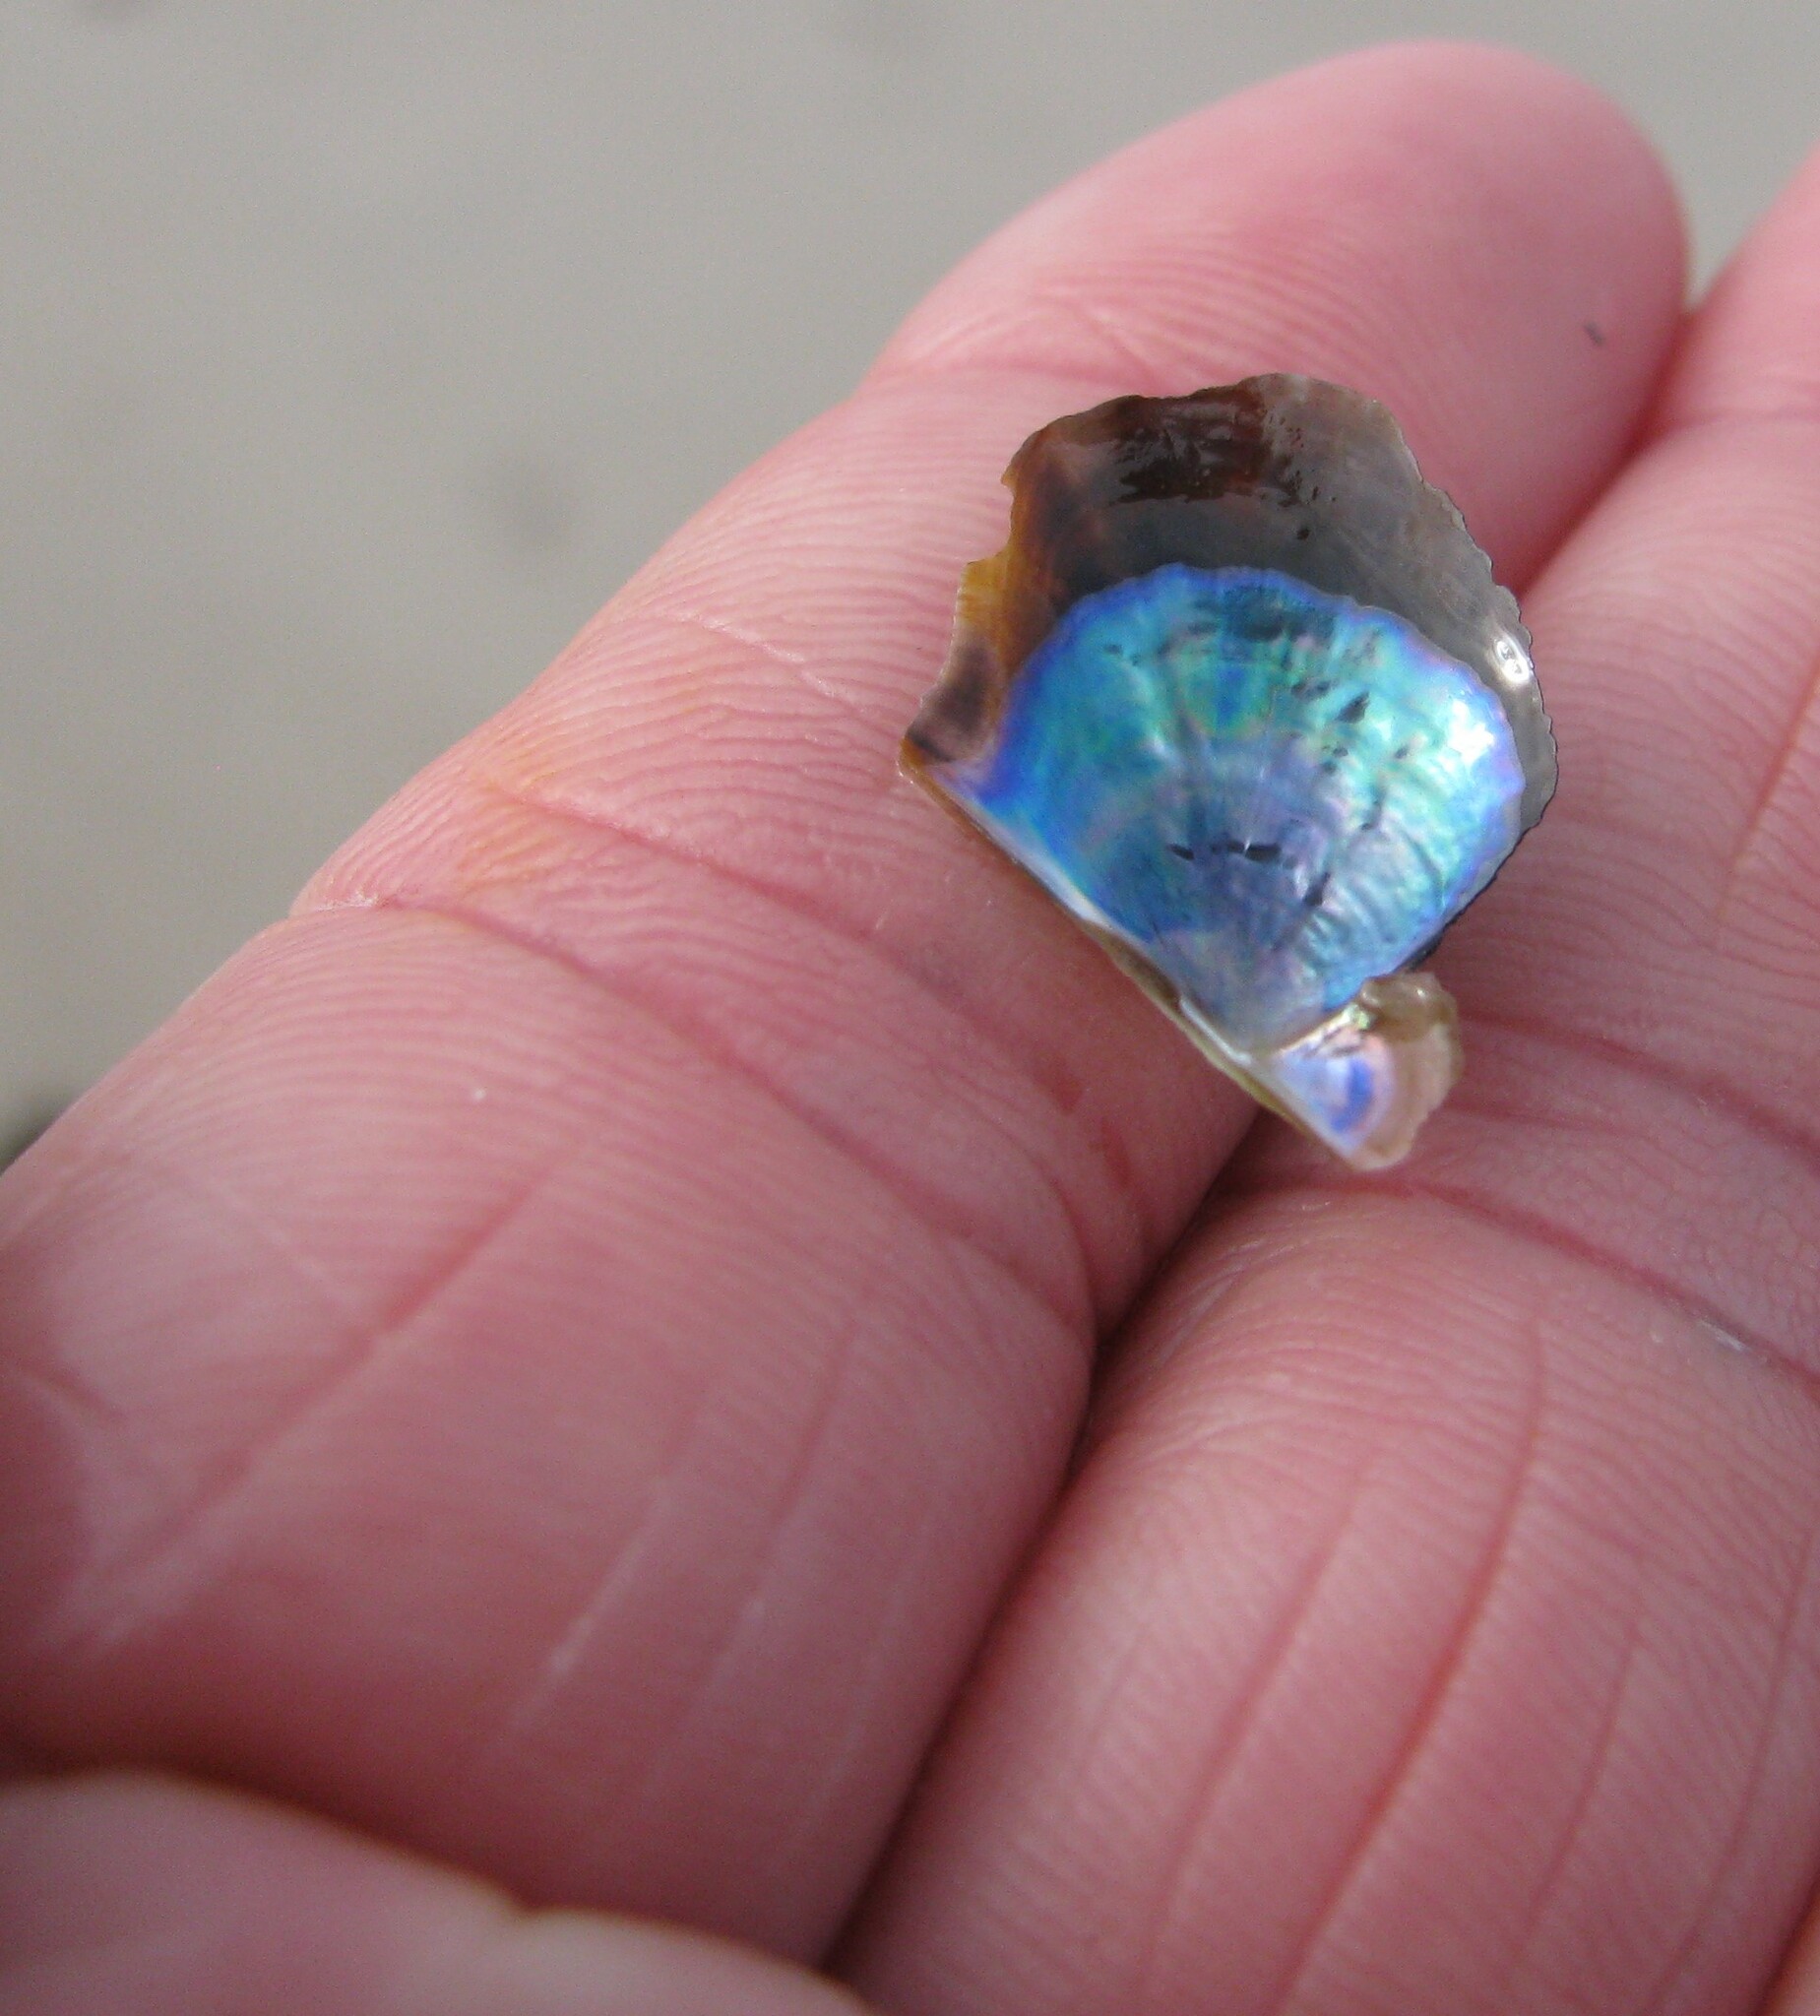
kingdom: Animalia
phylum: Mollusca
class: Bivalvia
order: Ostreida
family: Vulsellidae
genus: Electroma
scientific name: Electroma papilionacea
